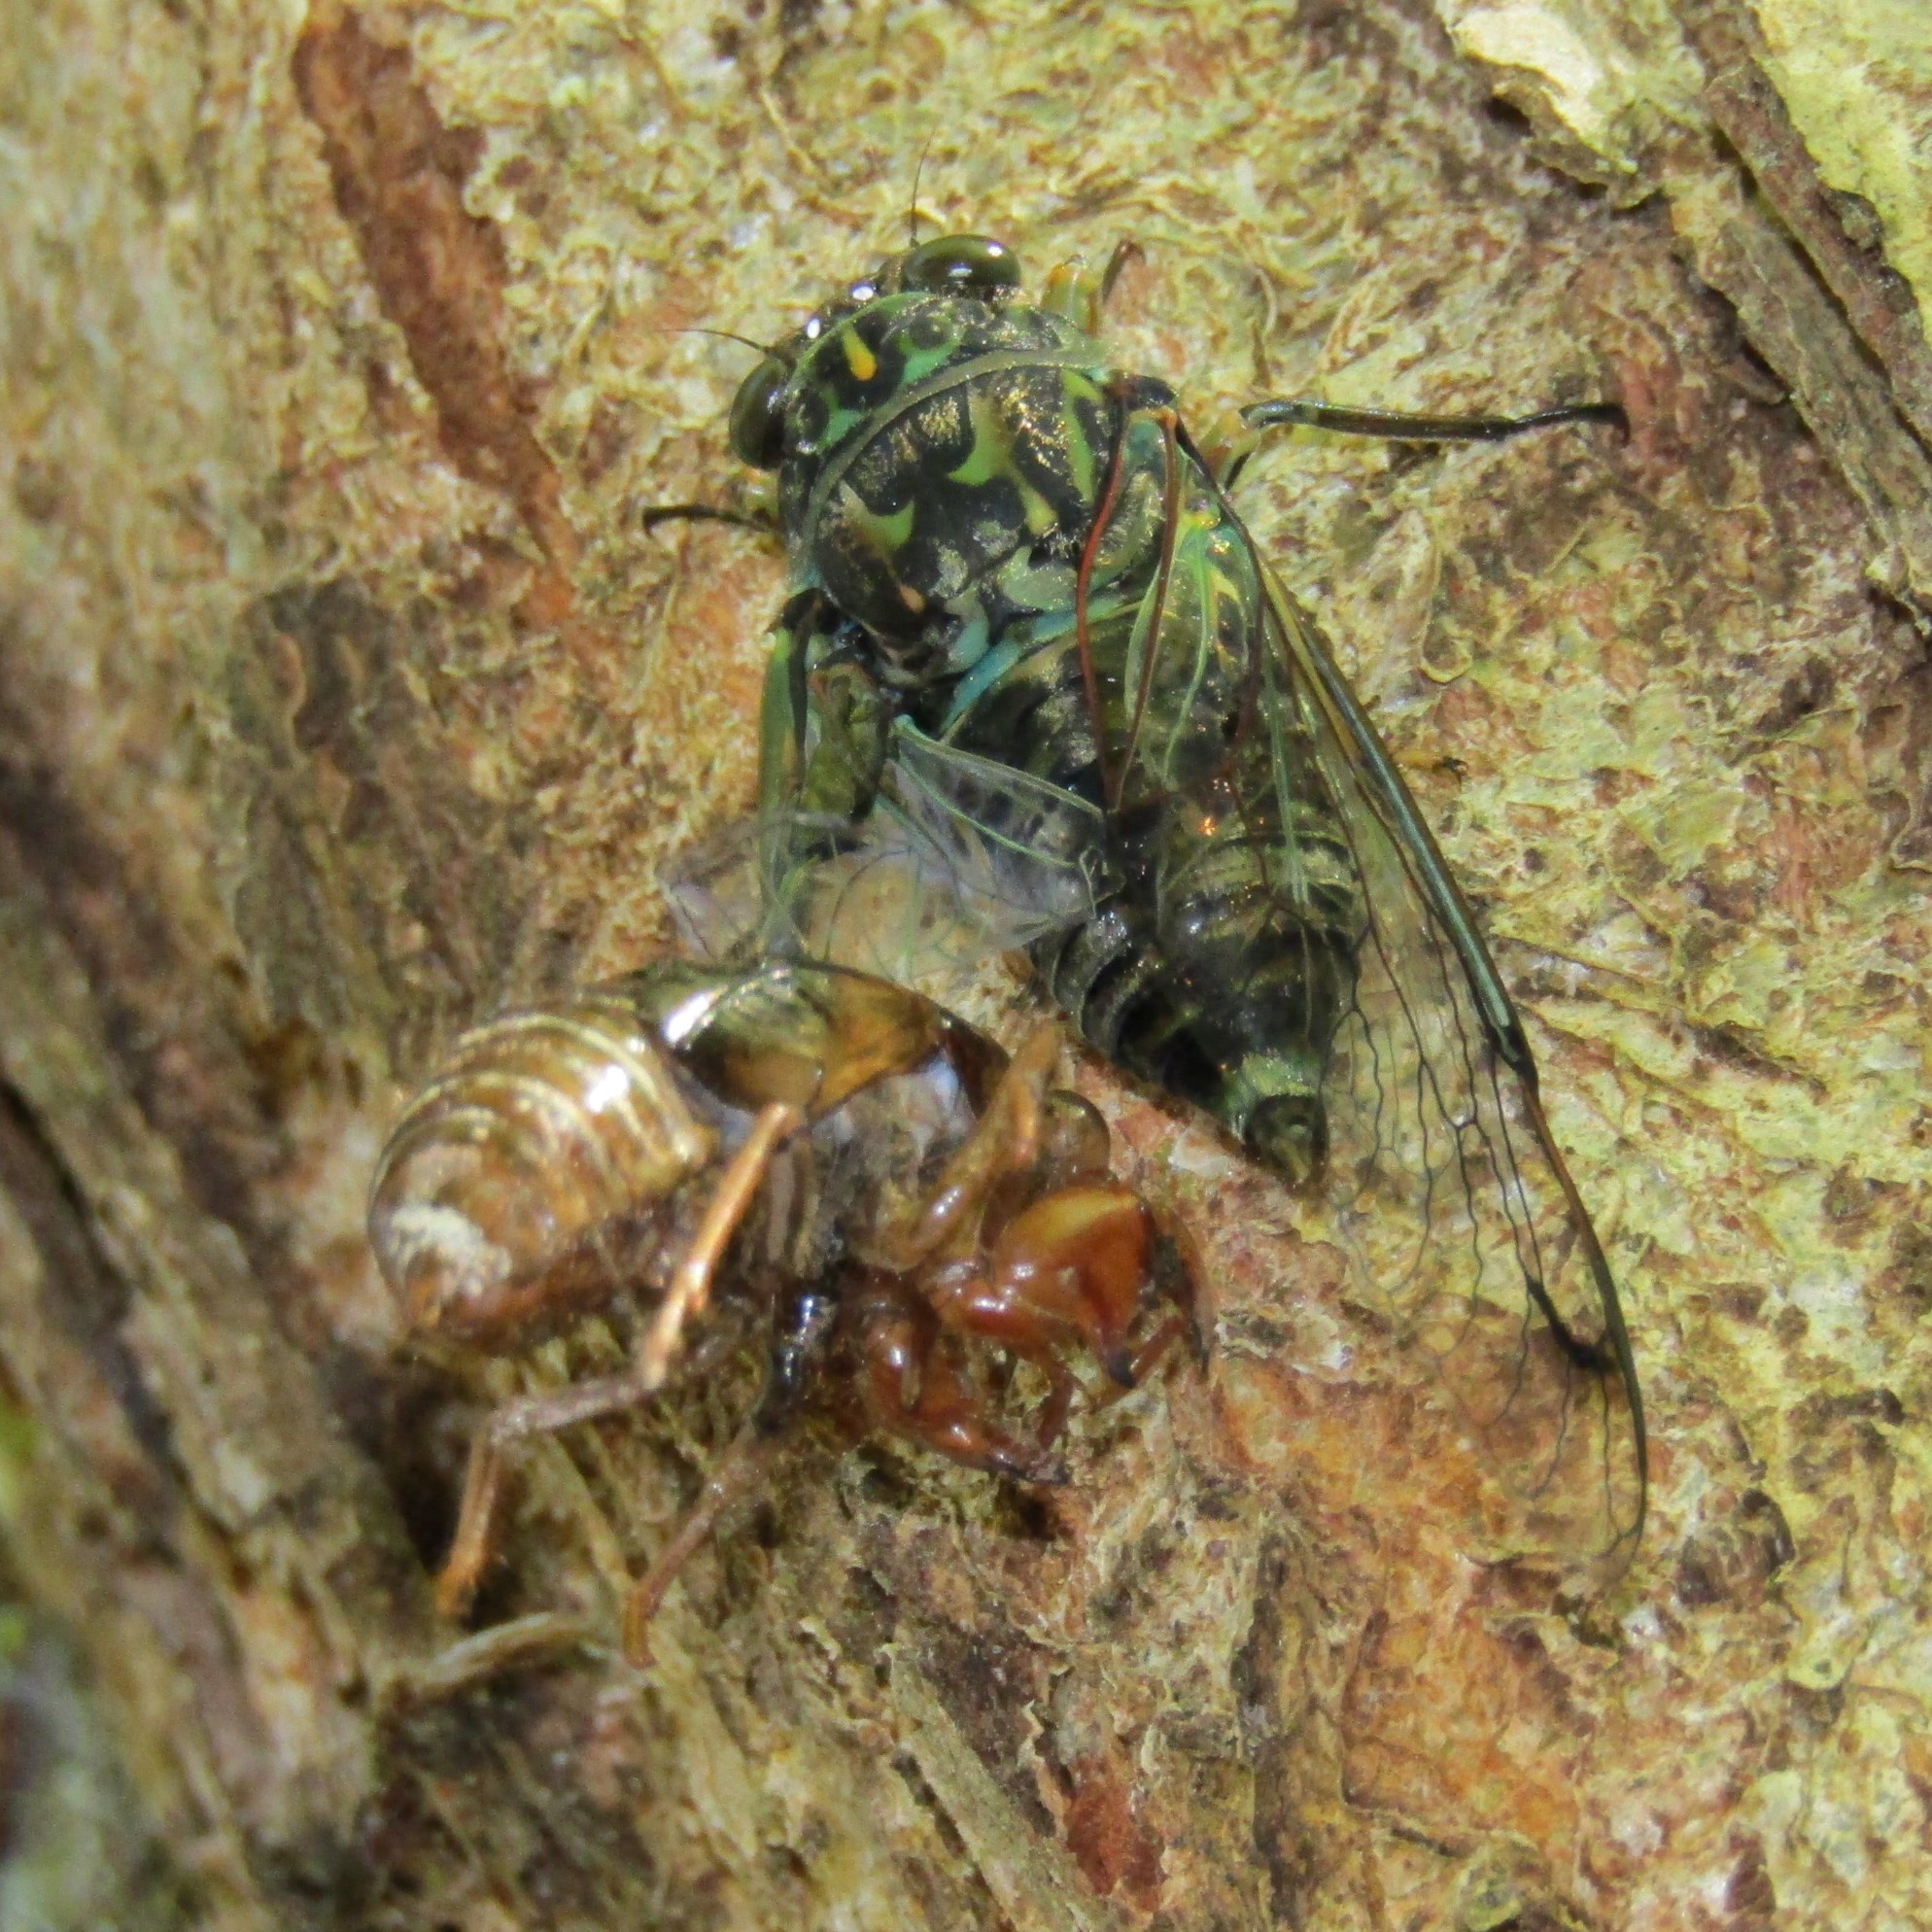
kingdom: Animalia
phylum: Arthropoda
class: Insecta
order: Hemiptera
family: Cicadidae
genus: Amphipsalta
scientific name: Amphipsalta zelandica
